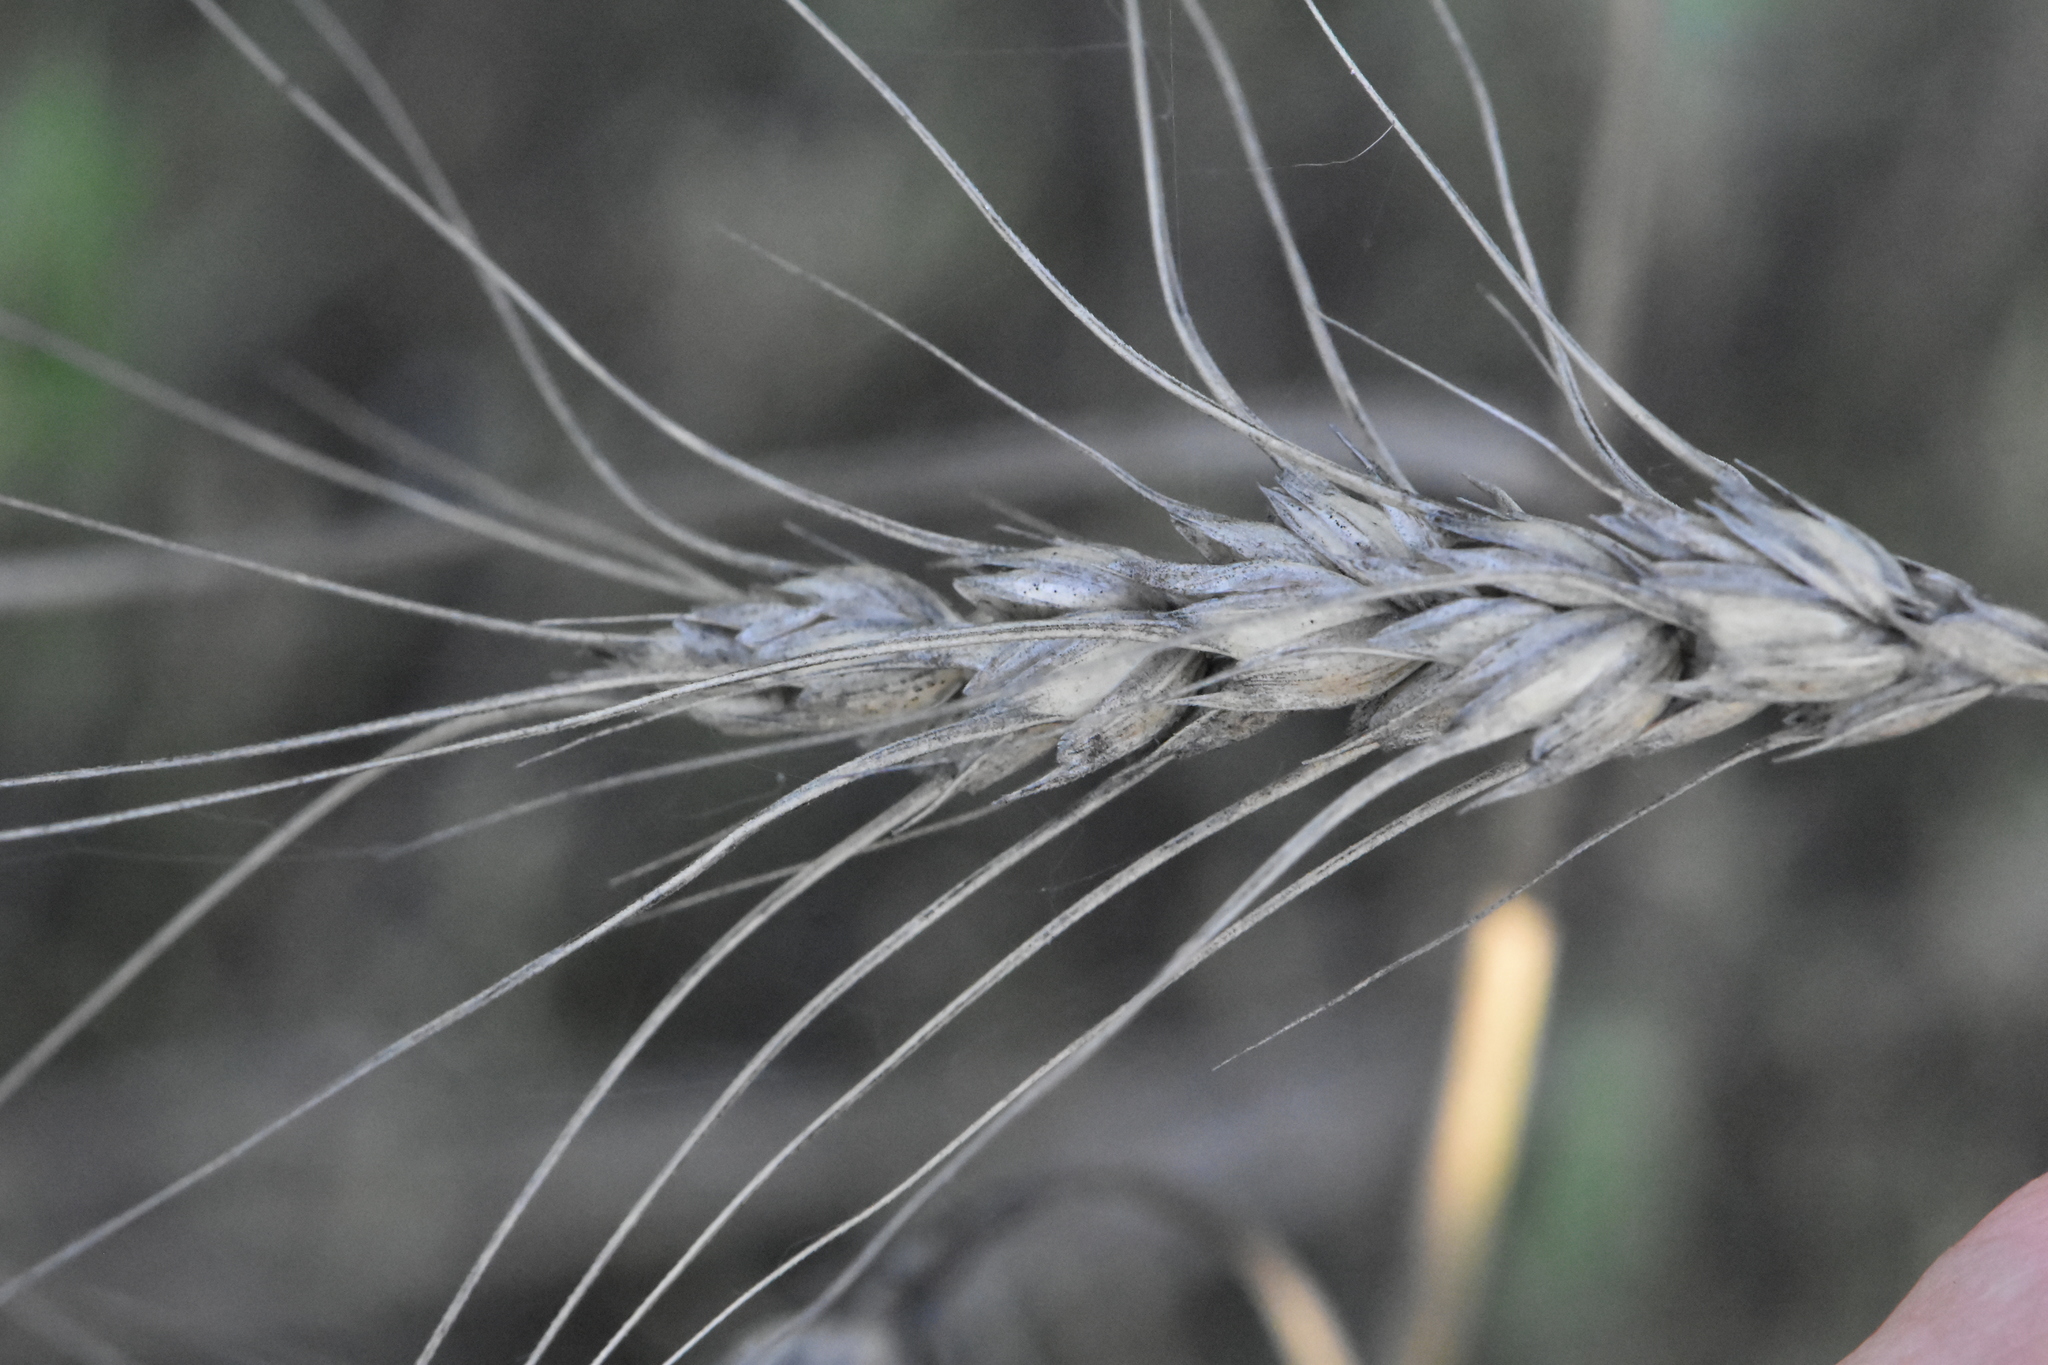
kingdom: Plantae
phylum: Tracheophyta
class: Liliopsida
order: Poales
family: Poaceae
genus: Triticum
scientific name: Triticum aestivum
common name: Common wheat
